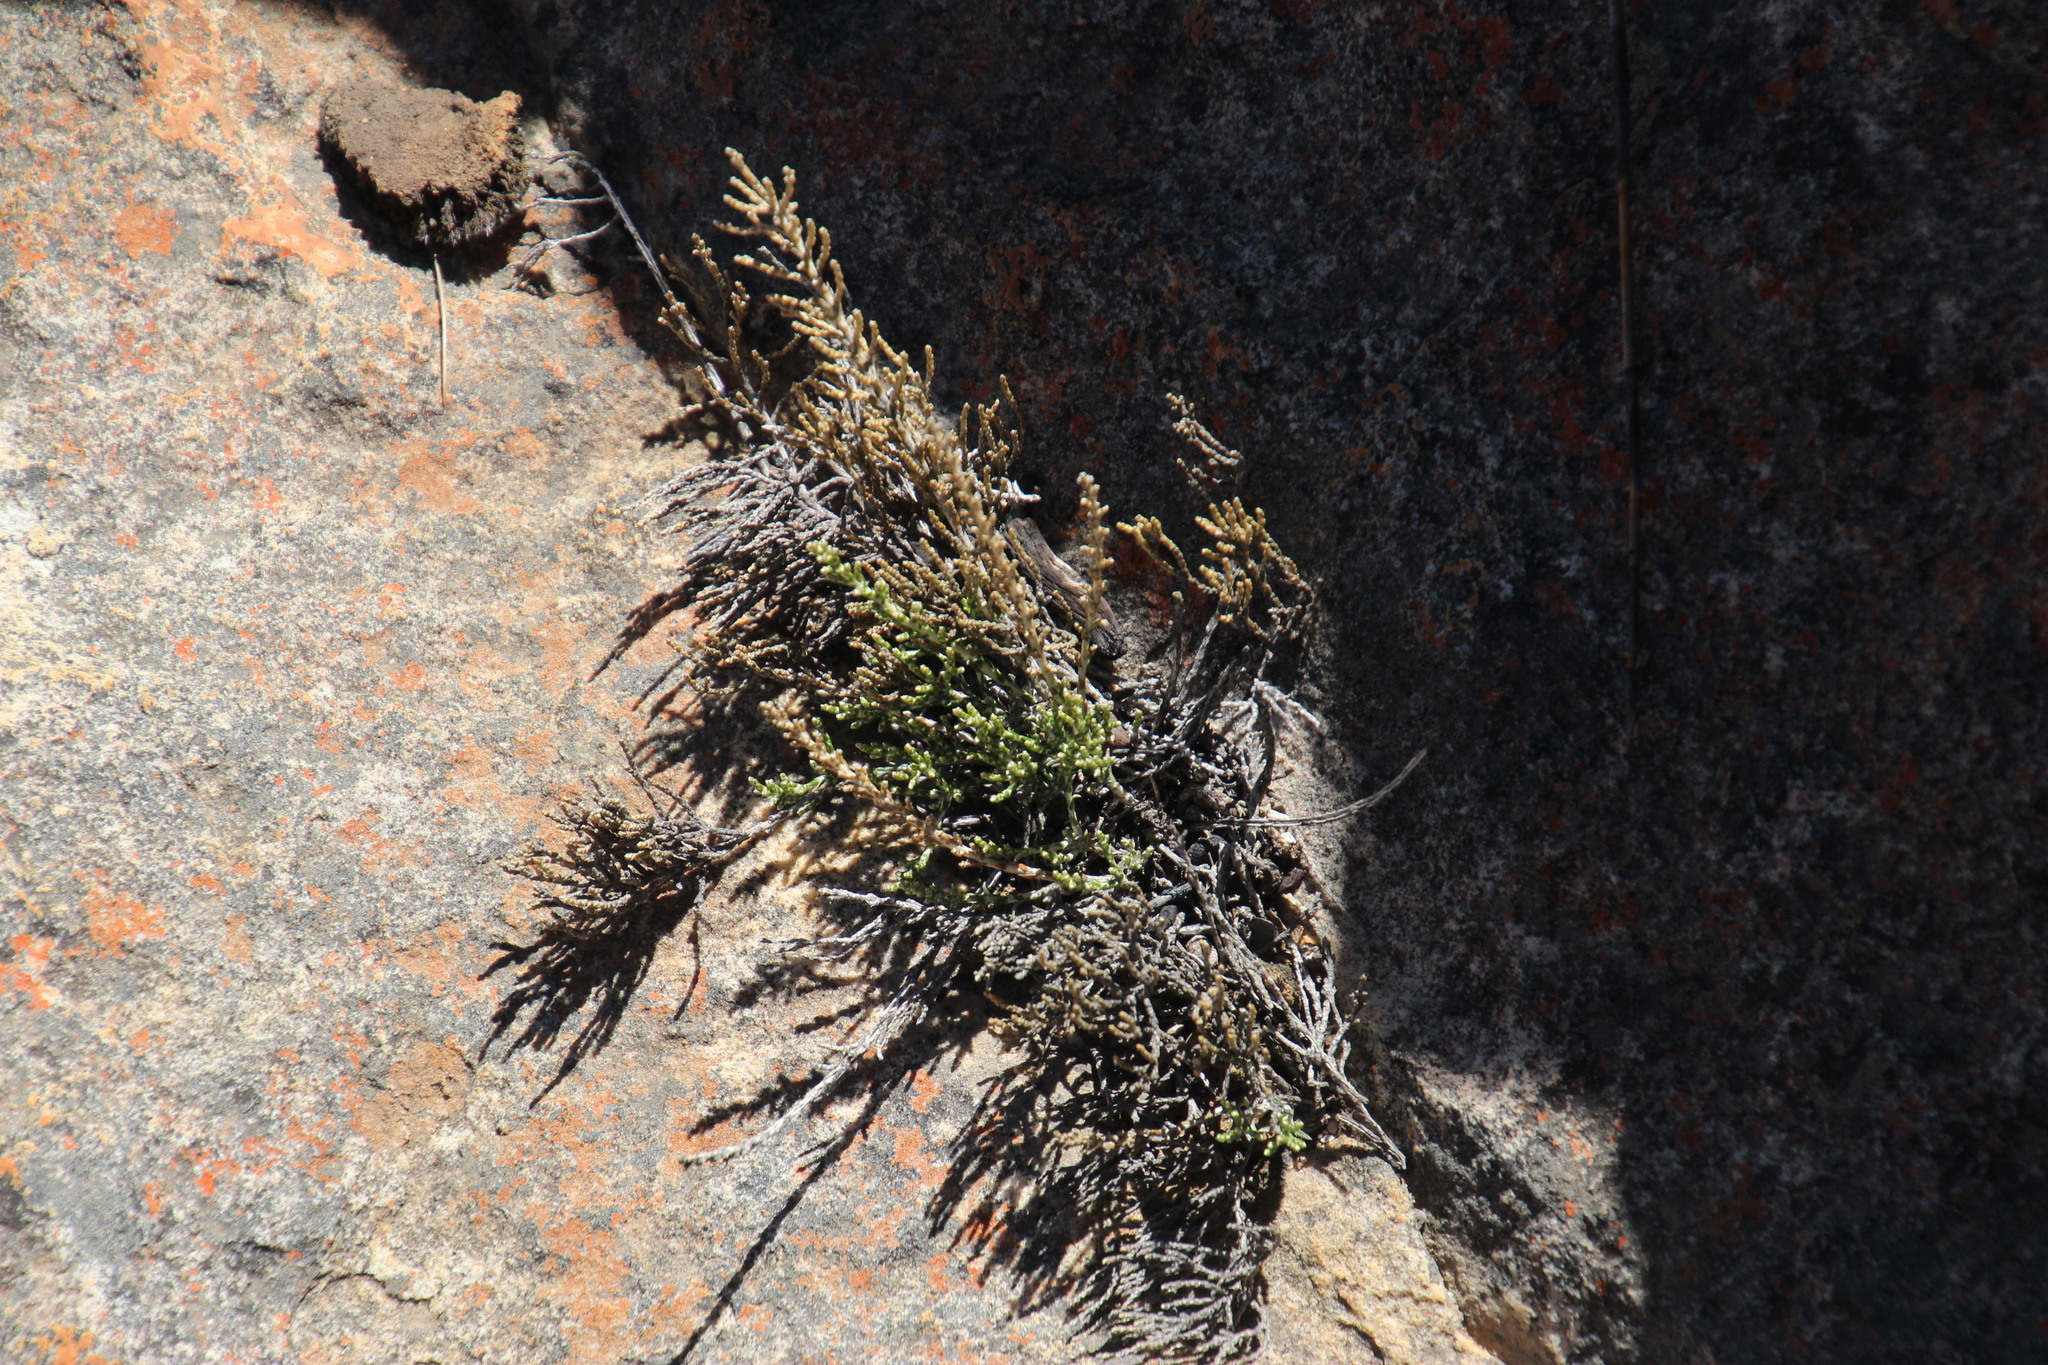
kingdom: Plantae
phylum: Tracheophyta
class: Magnoliopsida
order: Asterales
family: Asteraceae
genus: Dolichothrix
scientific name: Dolichothrix ericoides
